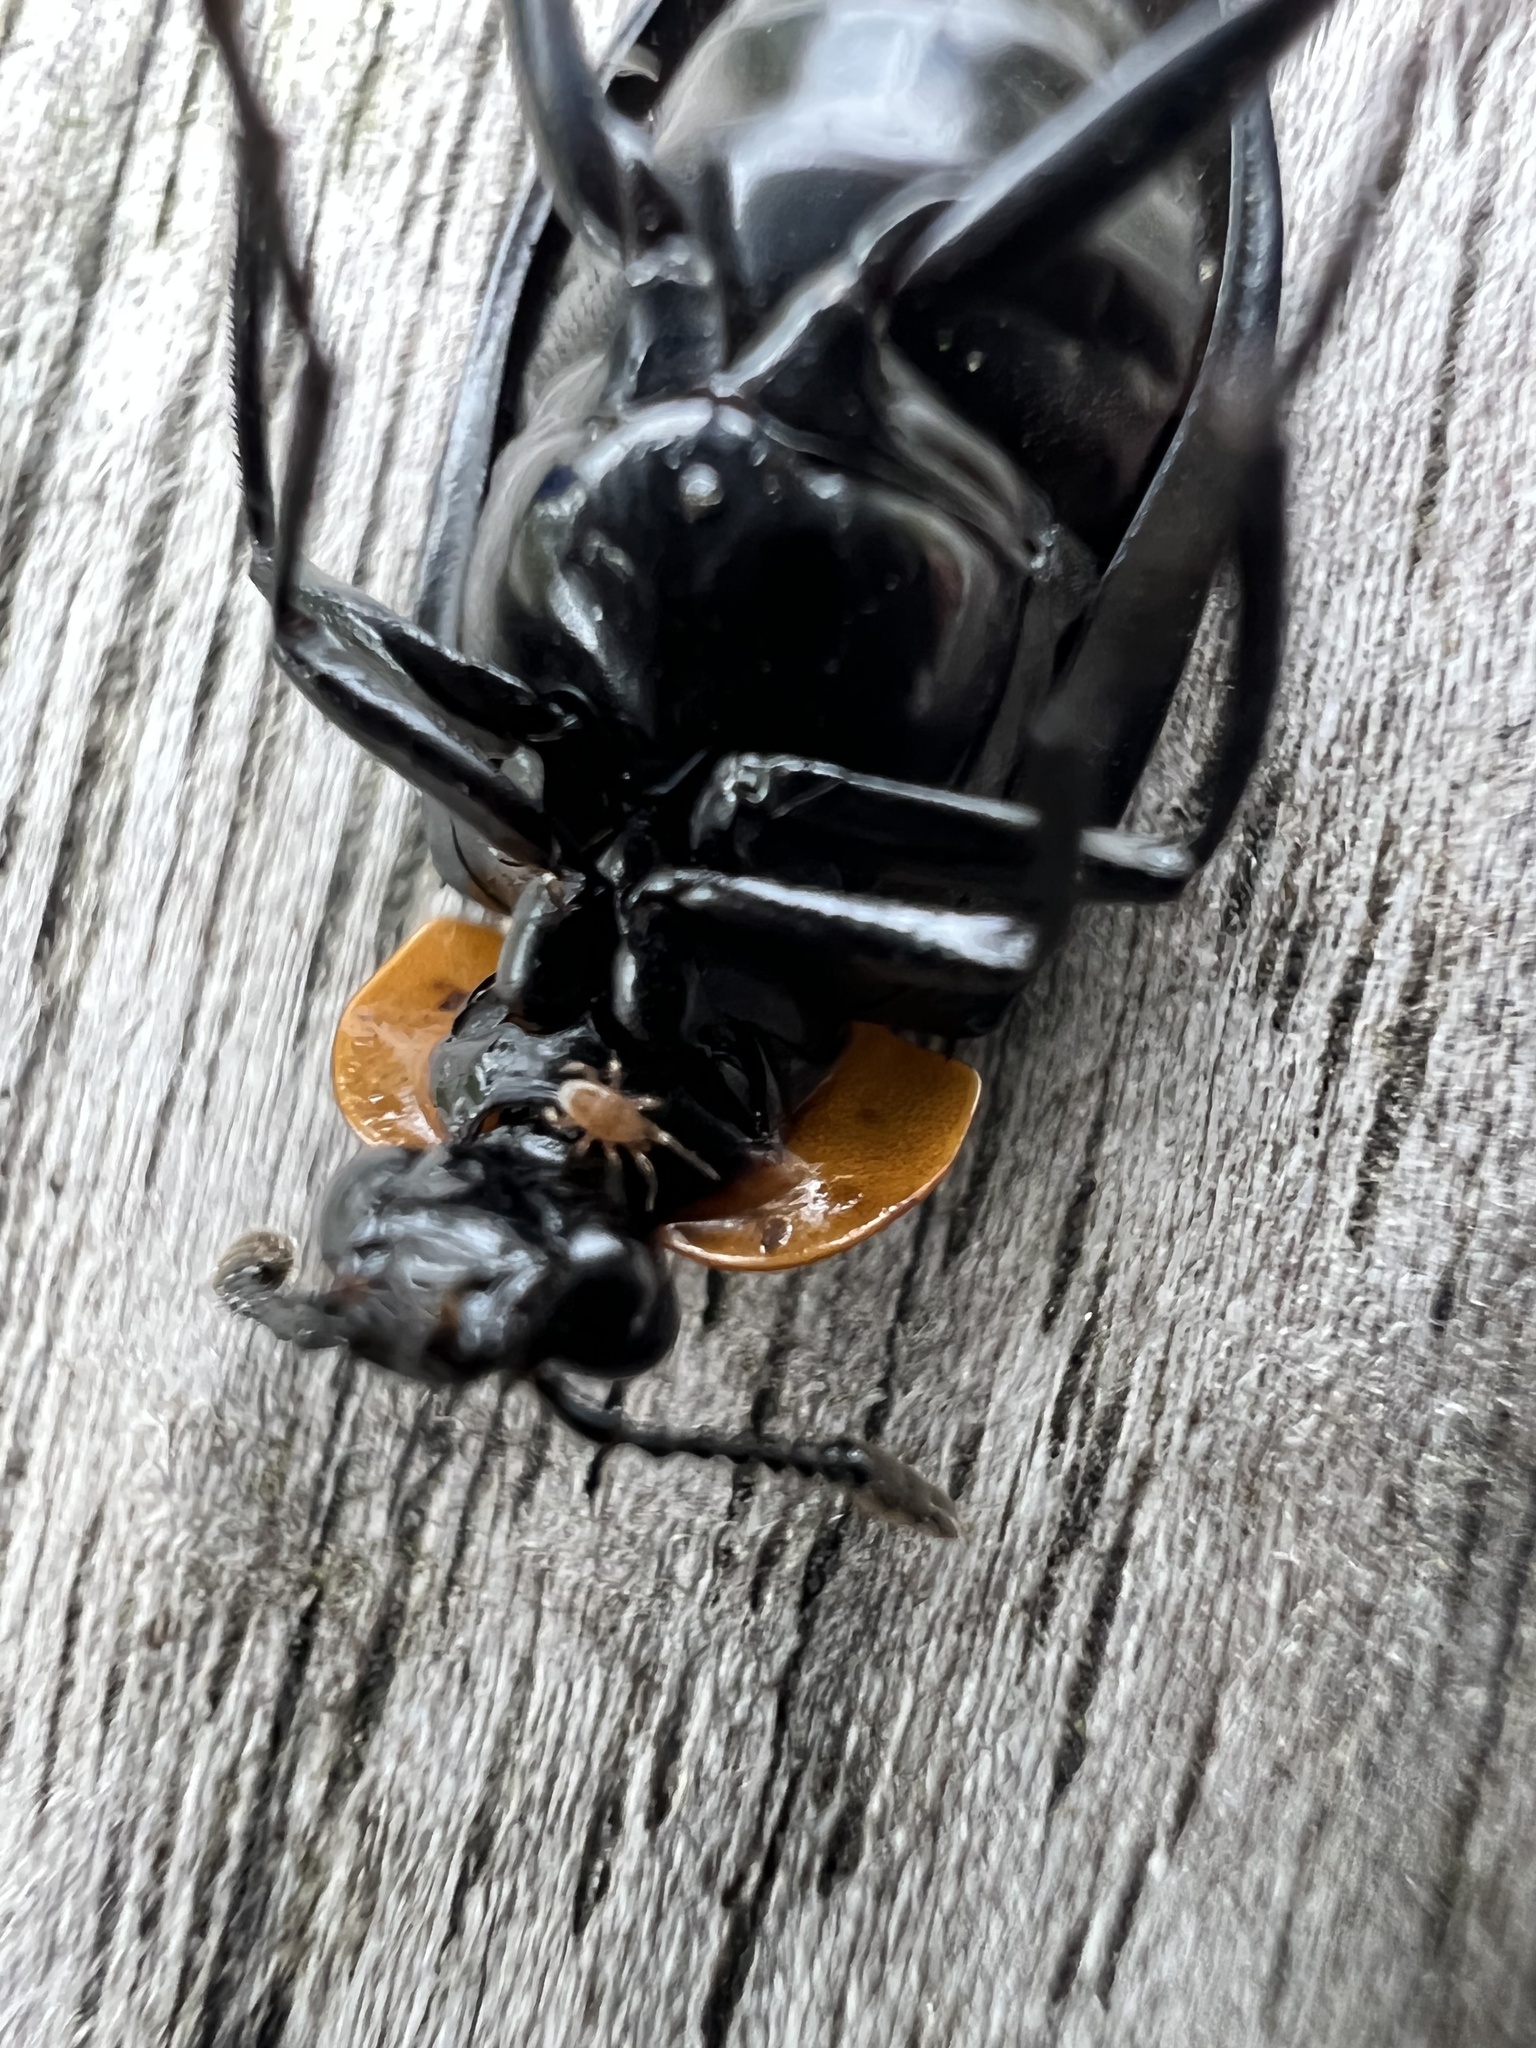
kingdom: Animalia
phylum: Arthropoda
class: Insecta
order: Coleoptera
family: Staphylinidae
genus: Oxelytrum
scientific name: Oxelytrum discicolle
